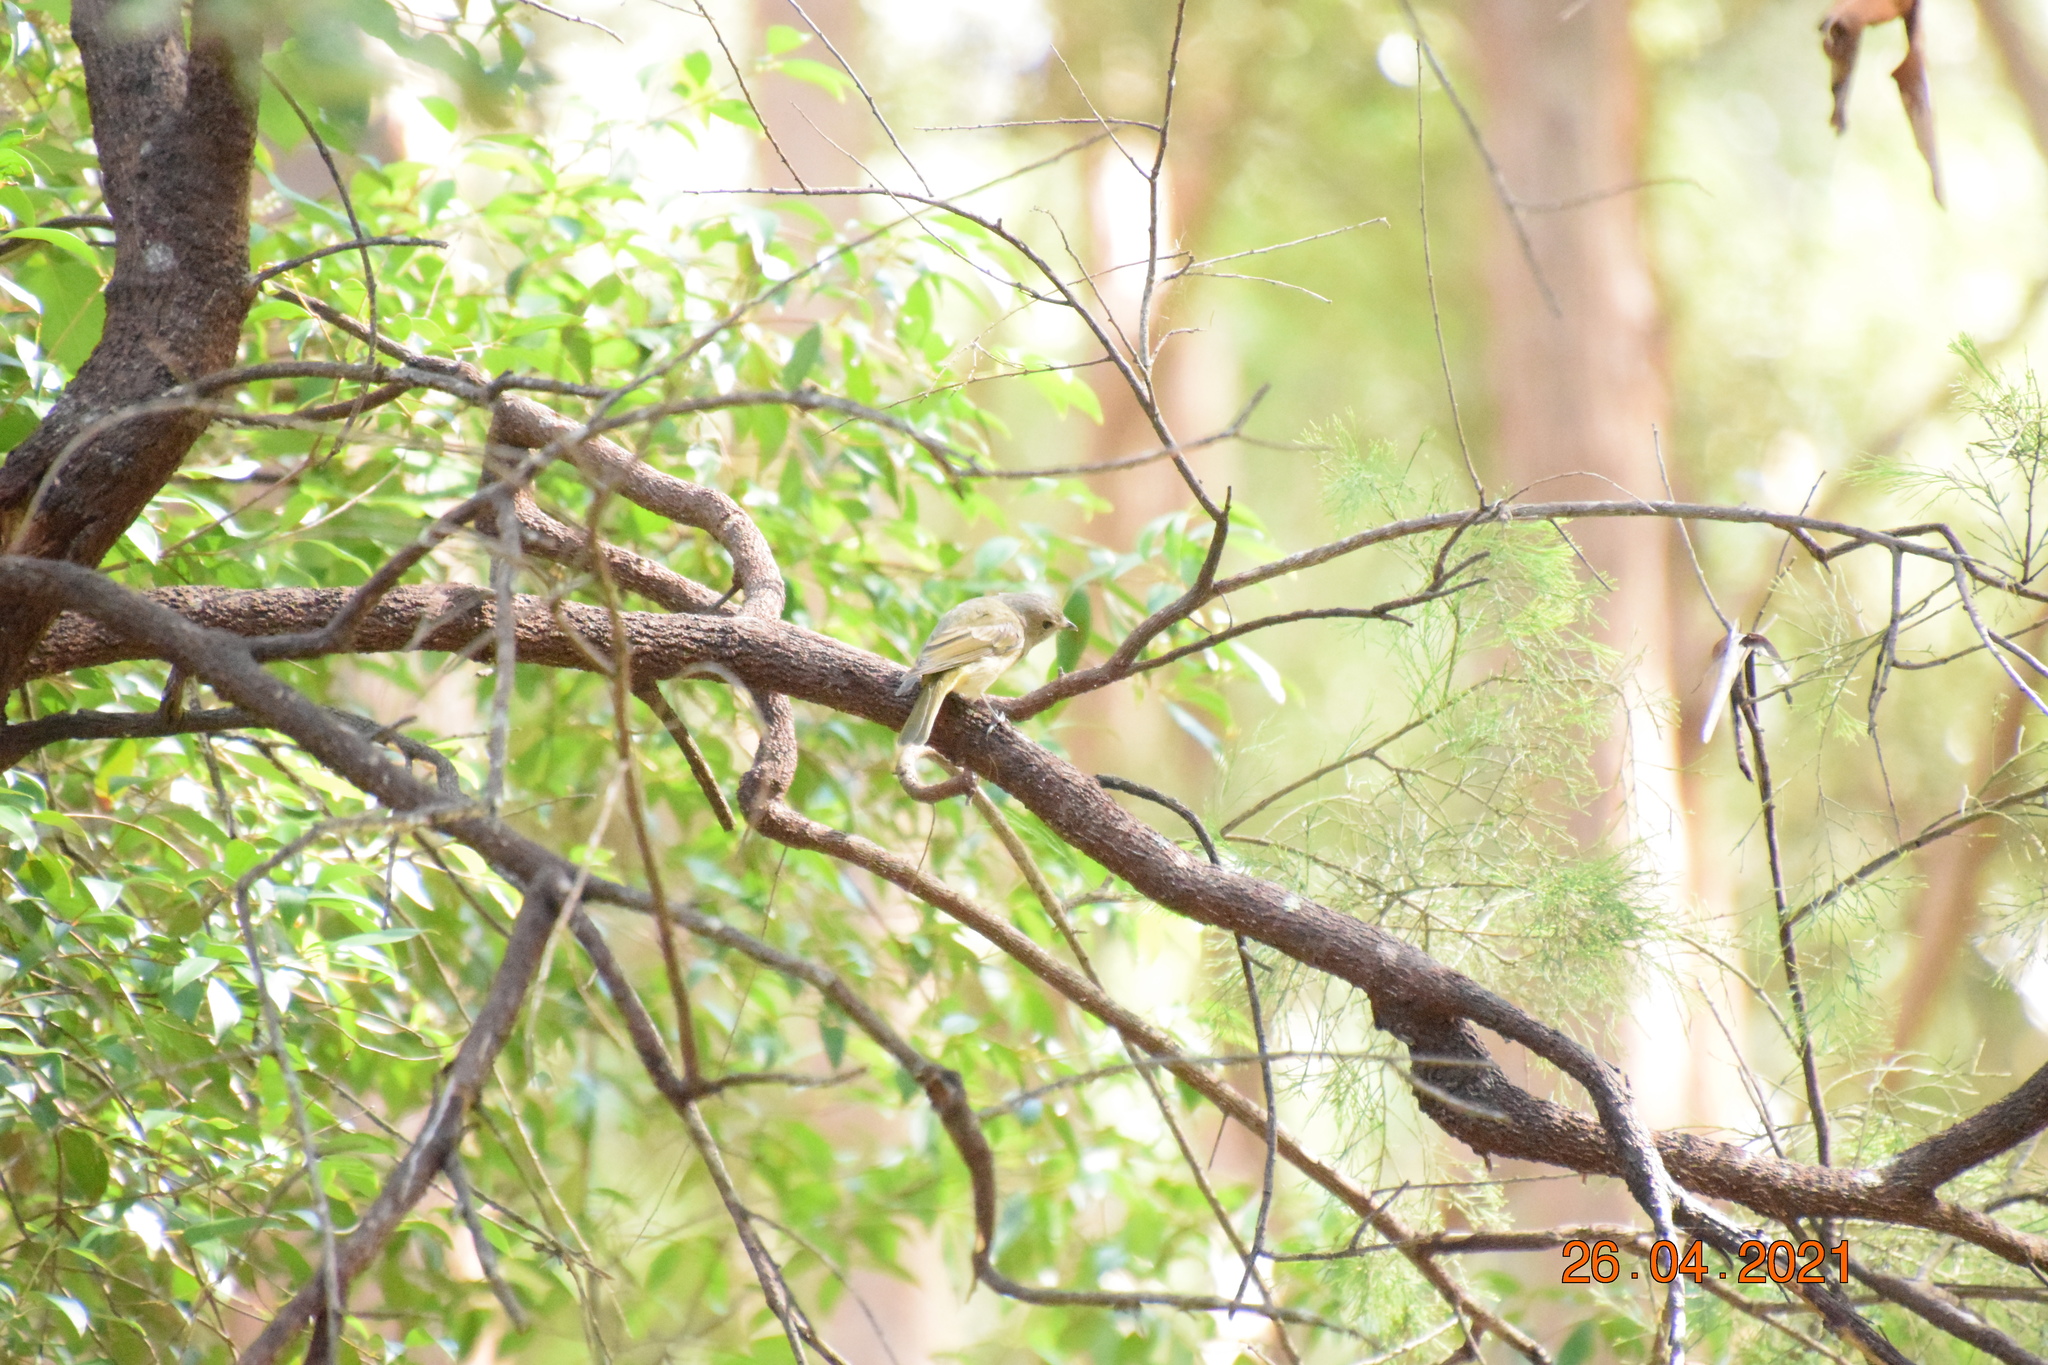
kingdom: Animalia
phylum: Chordata
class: Aves
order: Passeriformes
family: Pachycephalidae
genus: Pachycephala
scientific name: Pachycephala pectoralis
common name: Australian golden whistler
